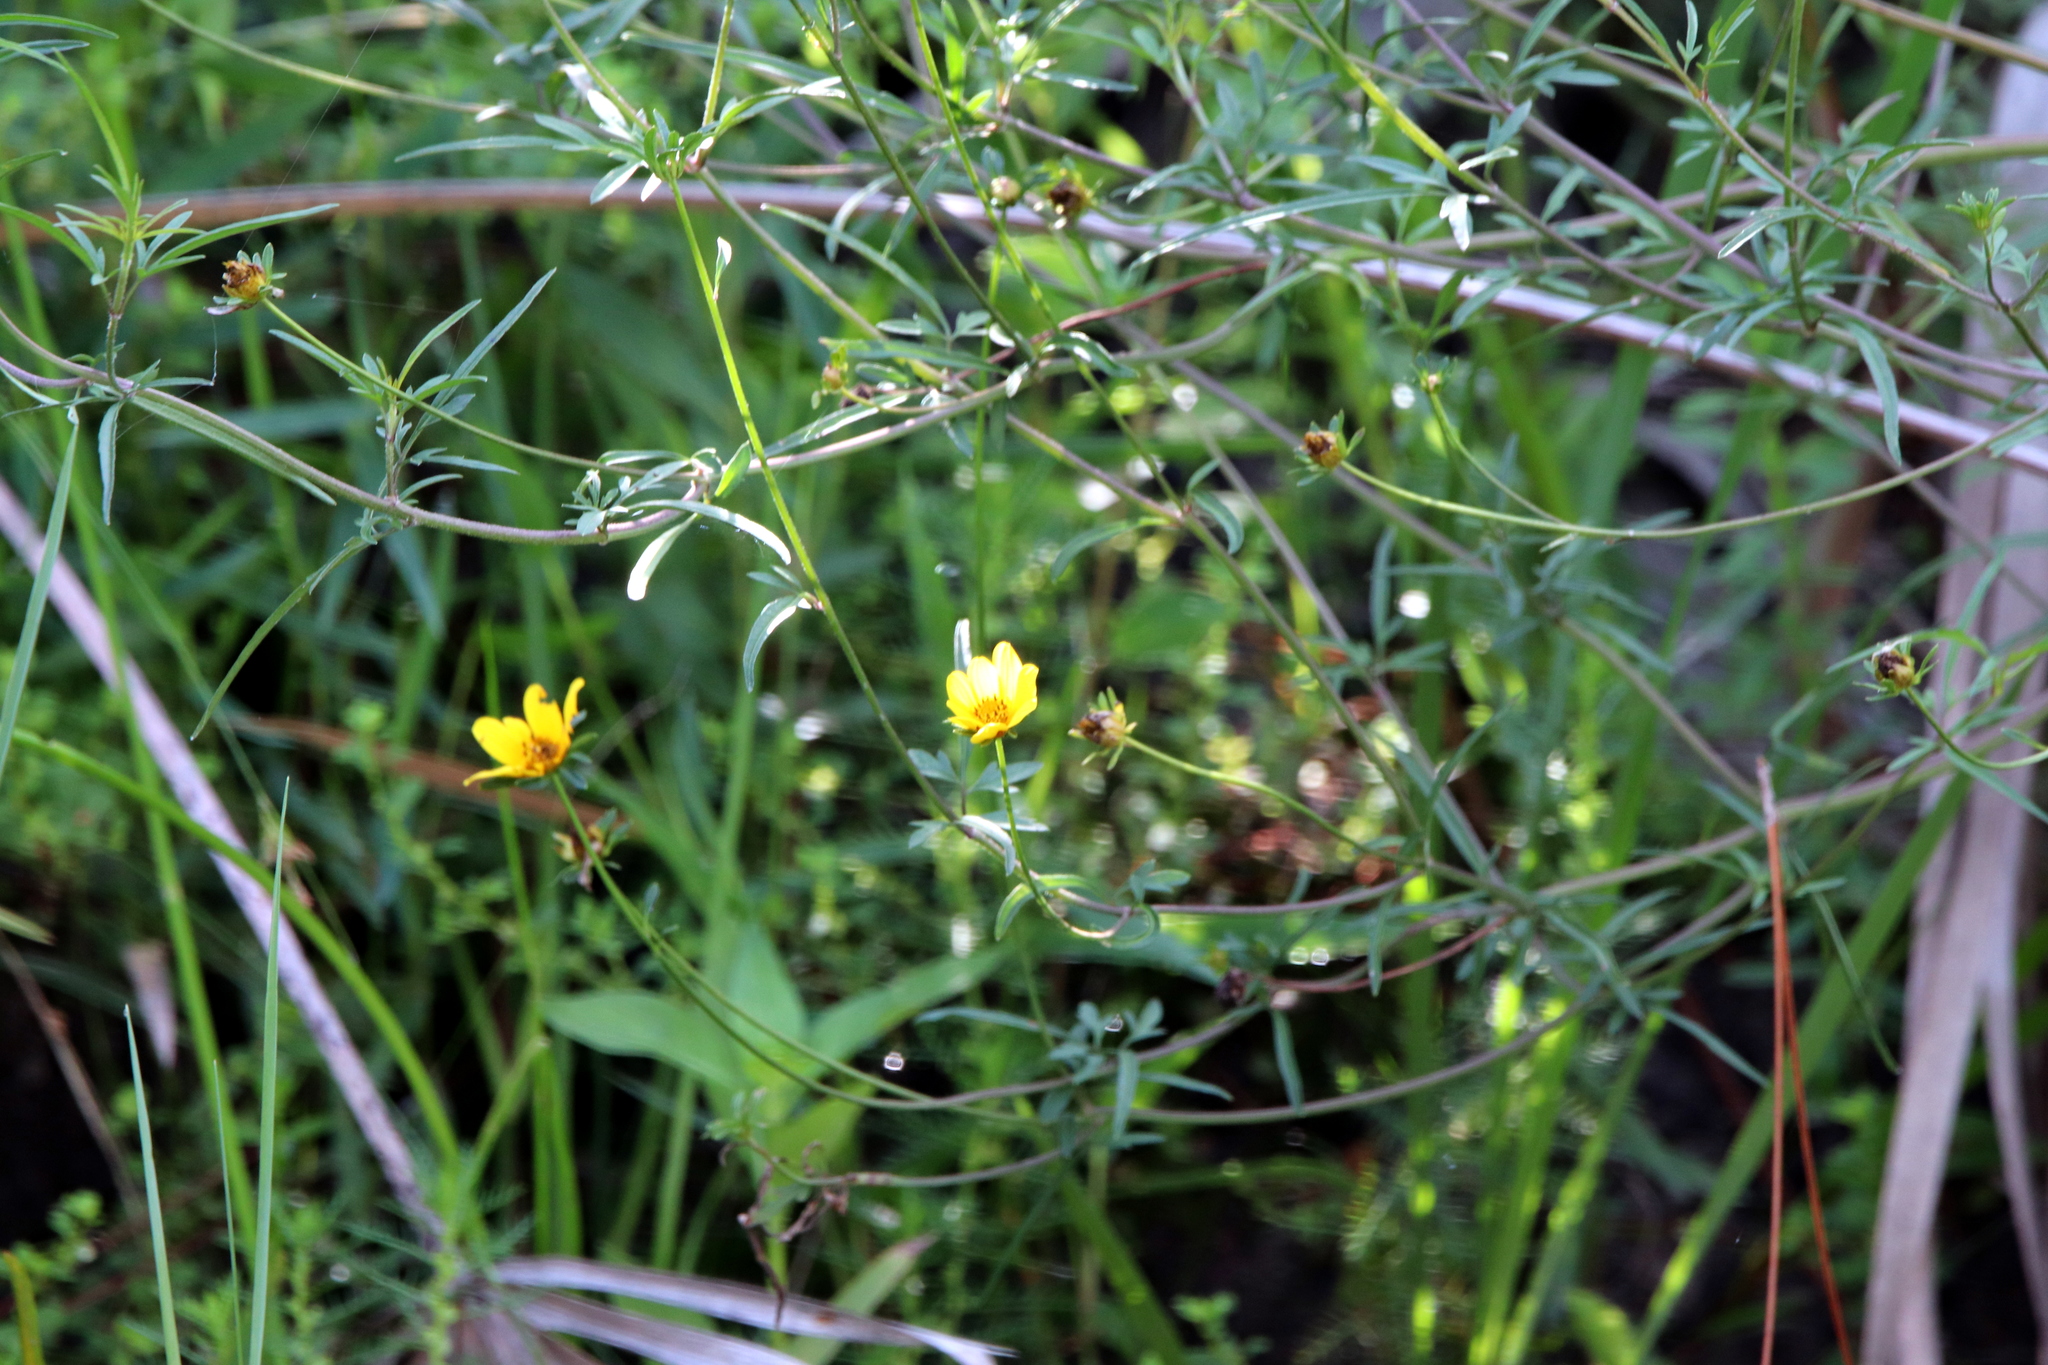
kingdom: Plantae
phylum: Tracheophyta
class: Magnoliopsida
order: Asterales
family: Asteraceae
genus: Bidens
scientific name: Bidens mitis
